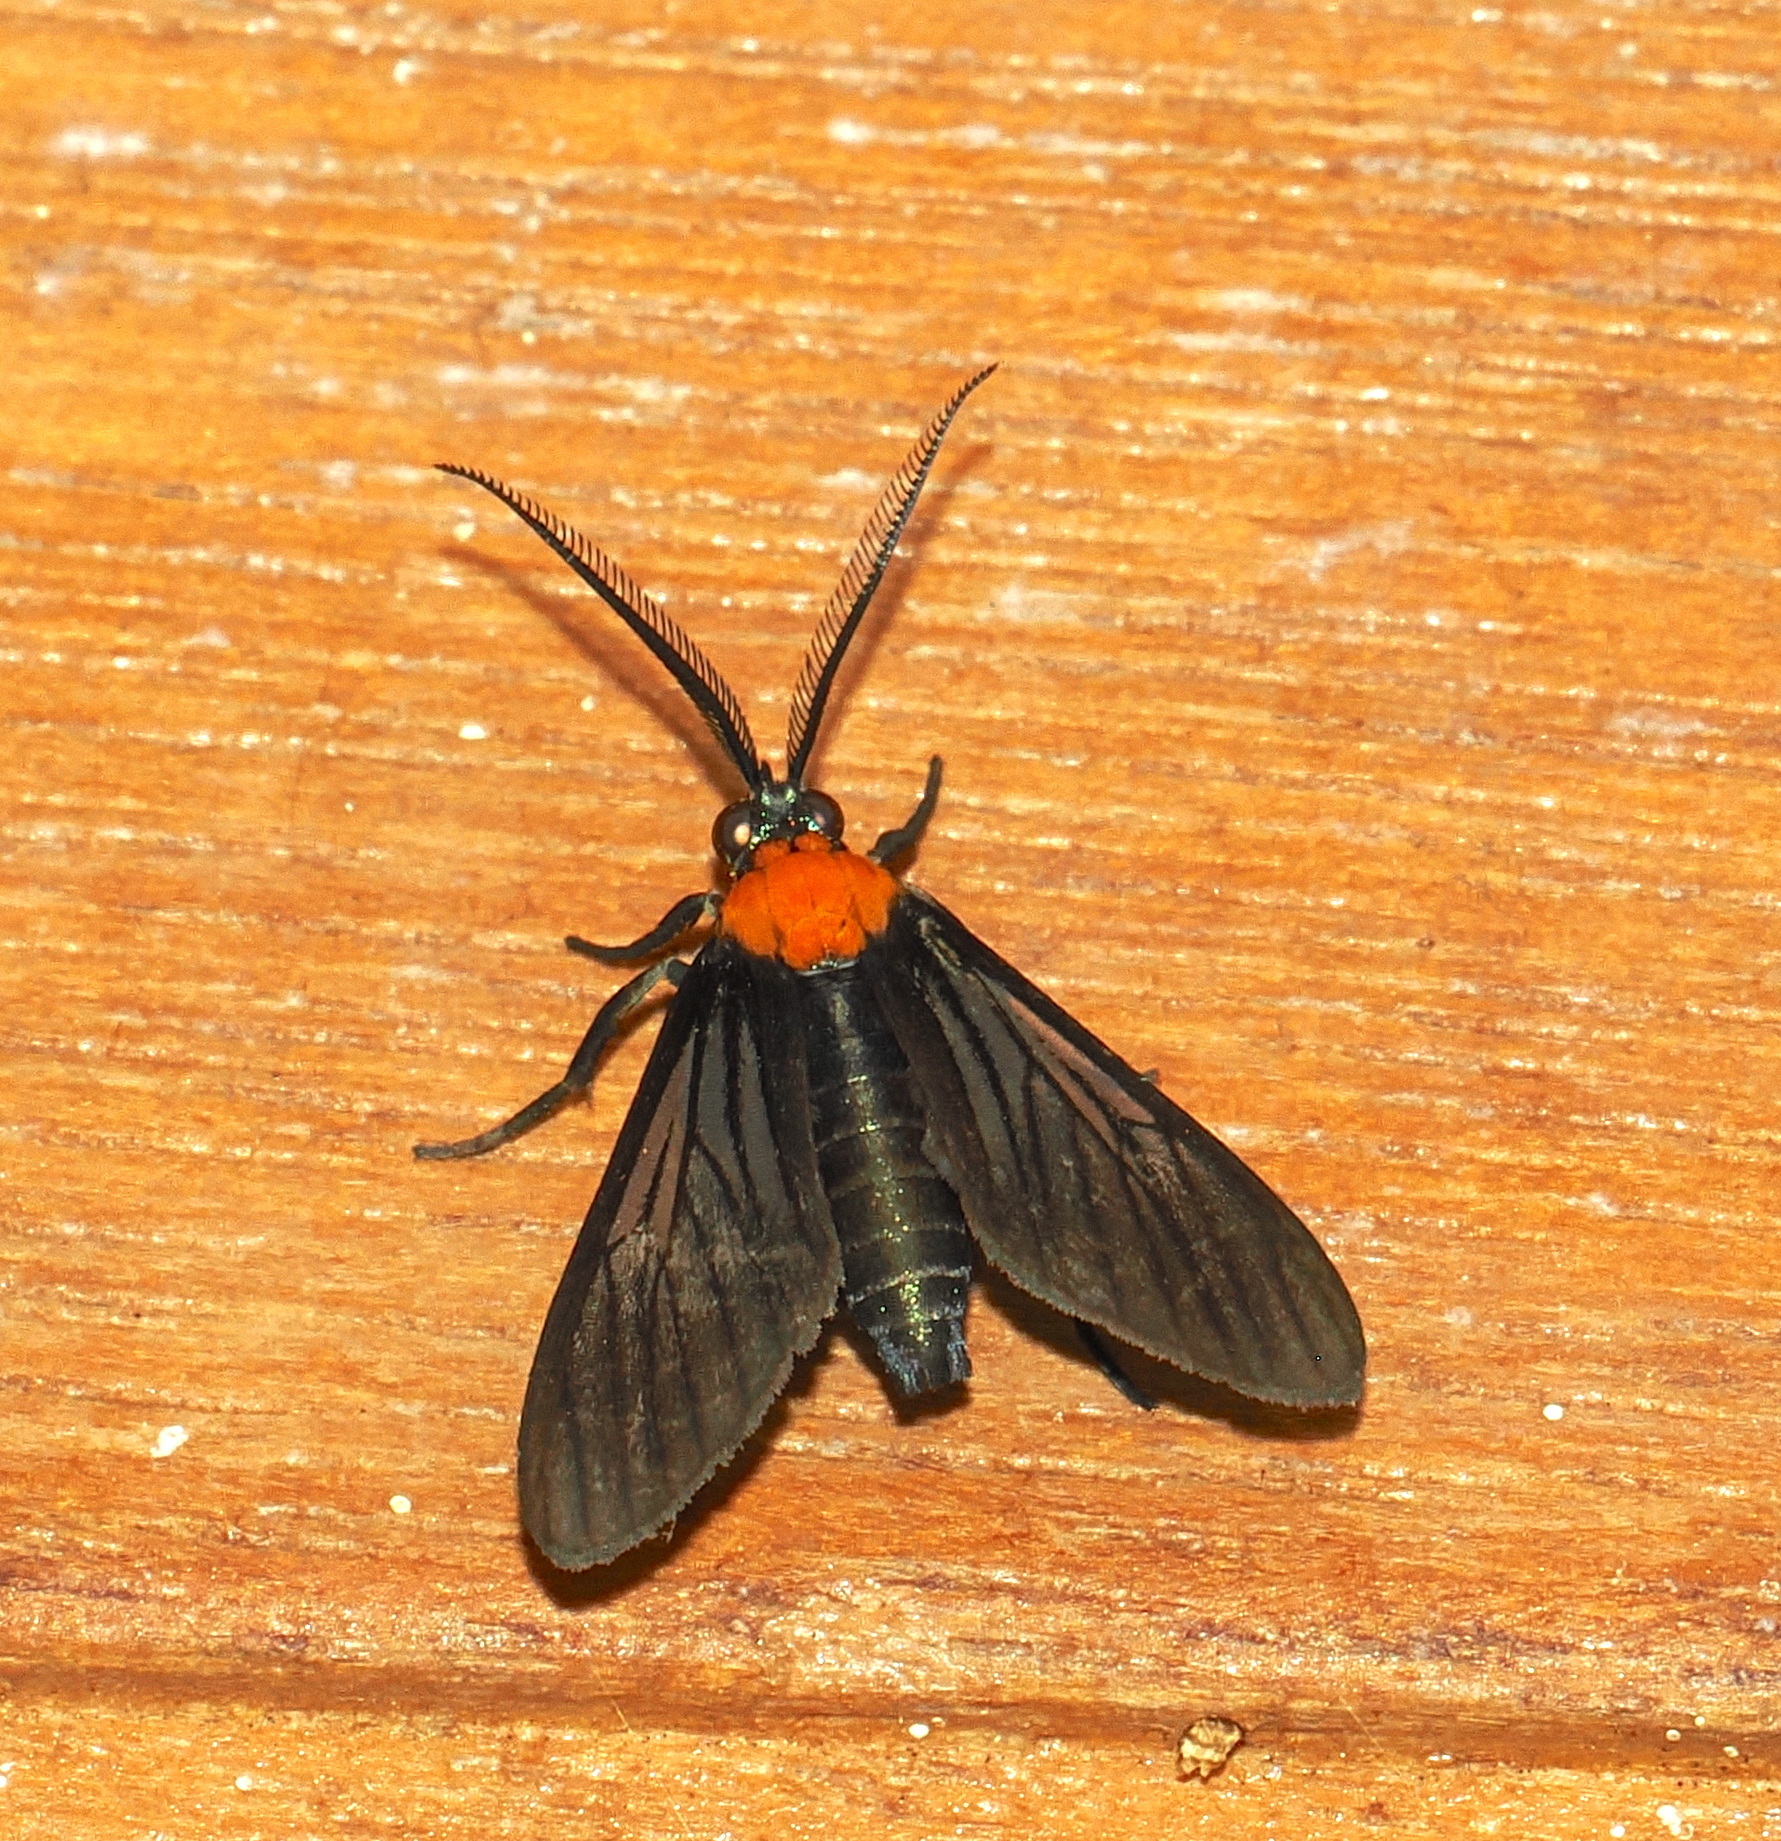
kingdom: Animalia
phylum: Arthropoda
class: Insecta
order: Lepidoptera
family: Erebidae
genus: Saurita
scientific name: Saurita temenus
